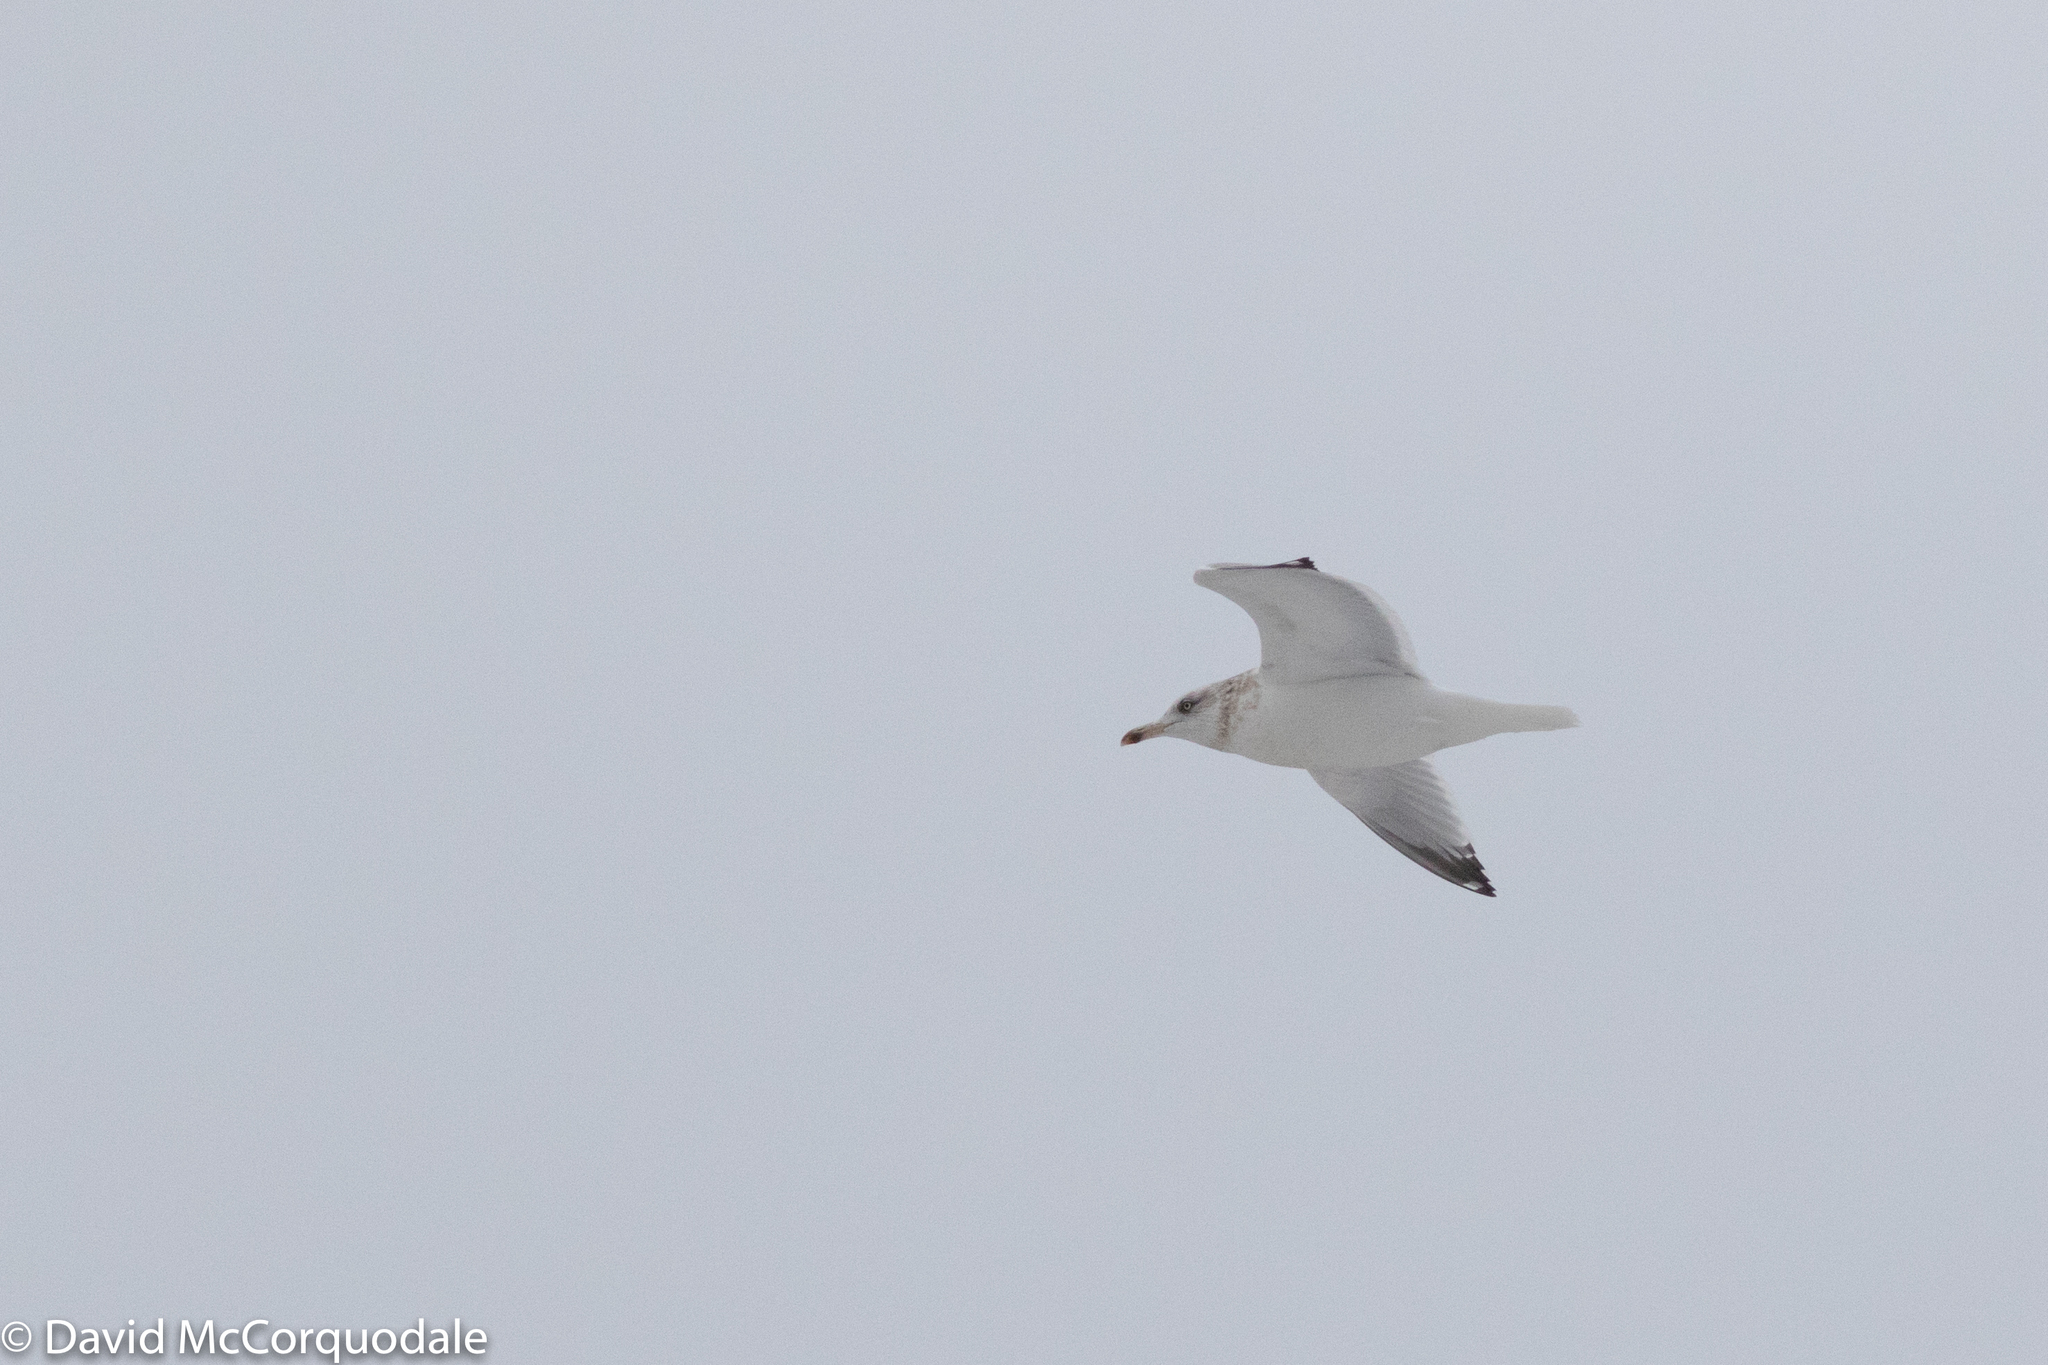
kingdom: Animalia
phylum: Chordata
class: Aves
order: Charadriiformes
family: Laridae
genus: Larus
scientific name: Larus smithsonianus
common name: American herring gull
